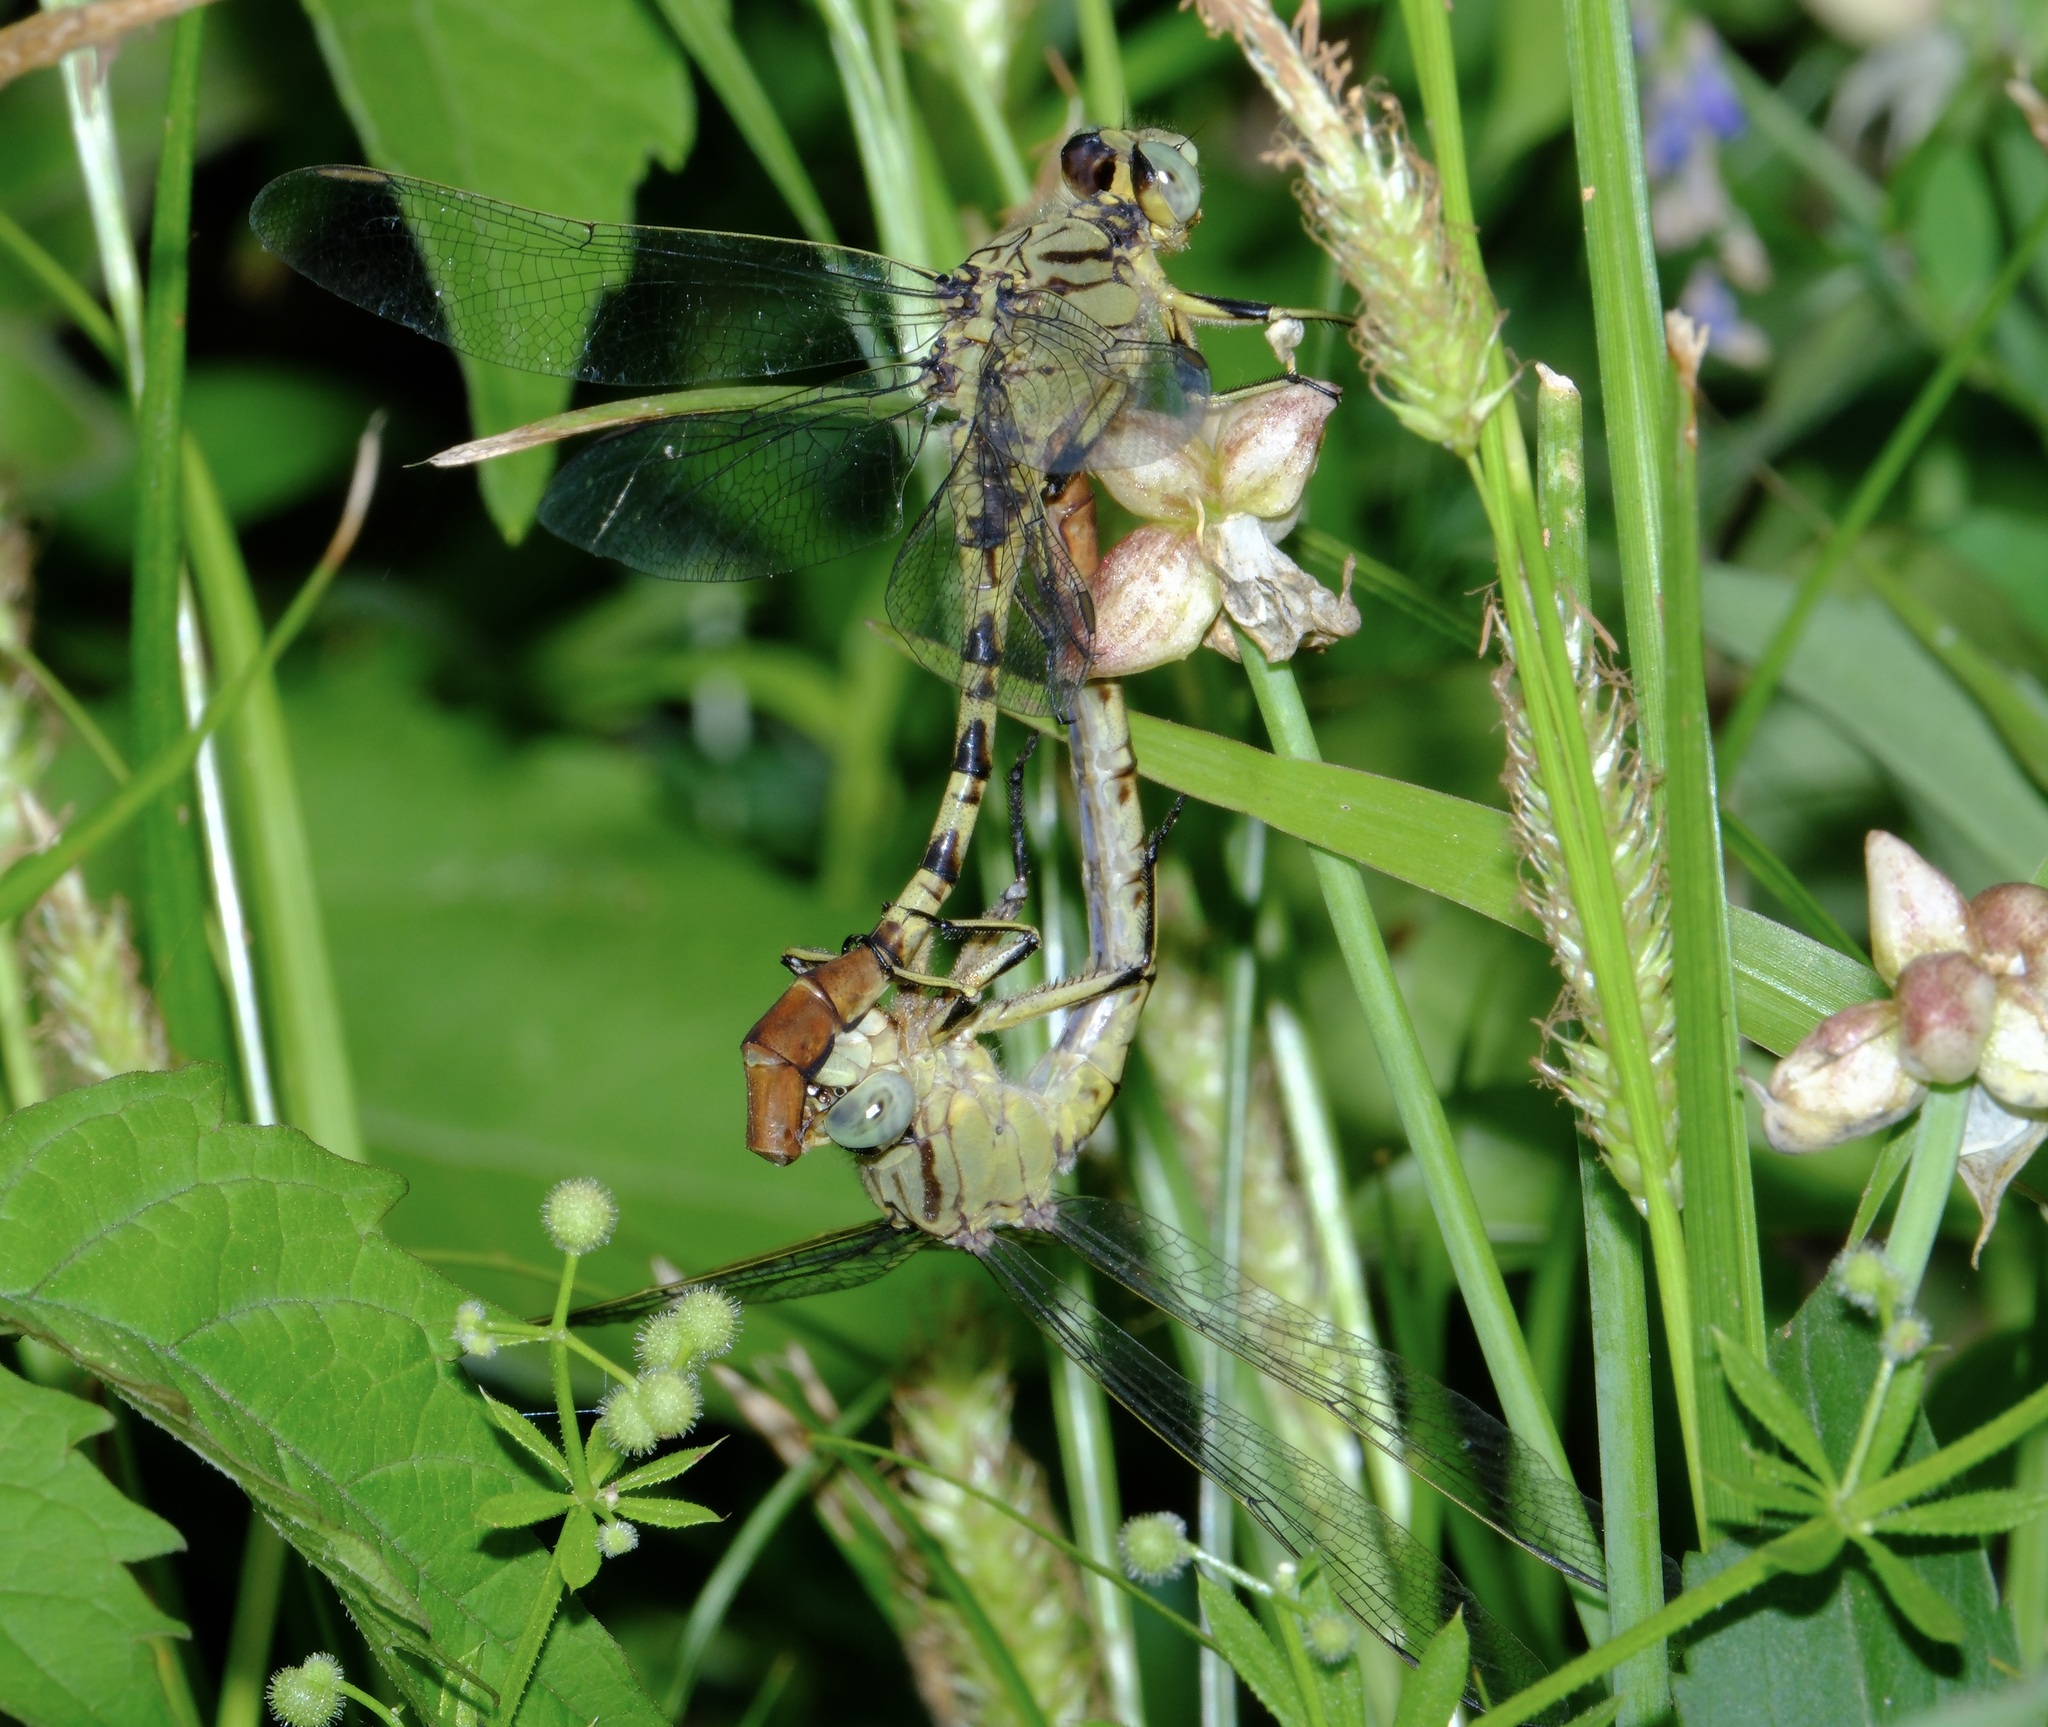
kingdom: Animalia
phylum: Arthropoda
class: Insecta
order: Odonata
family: Gomphidae
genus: Arigomphus
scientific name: Arigomphus submedianus
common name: Jade clubtail
